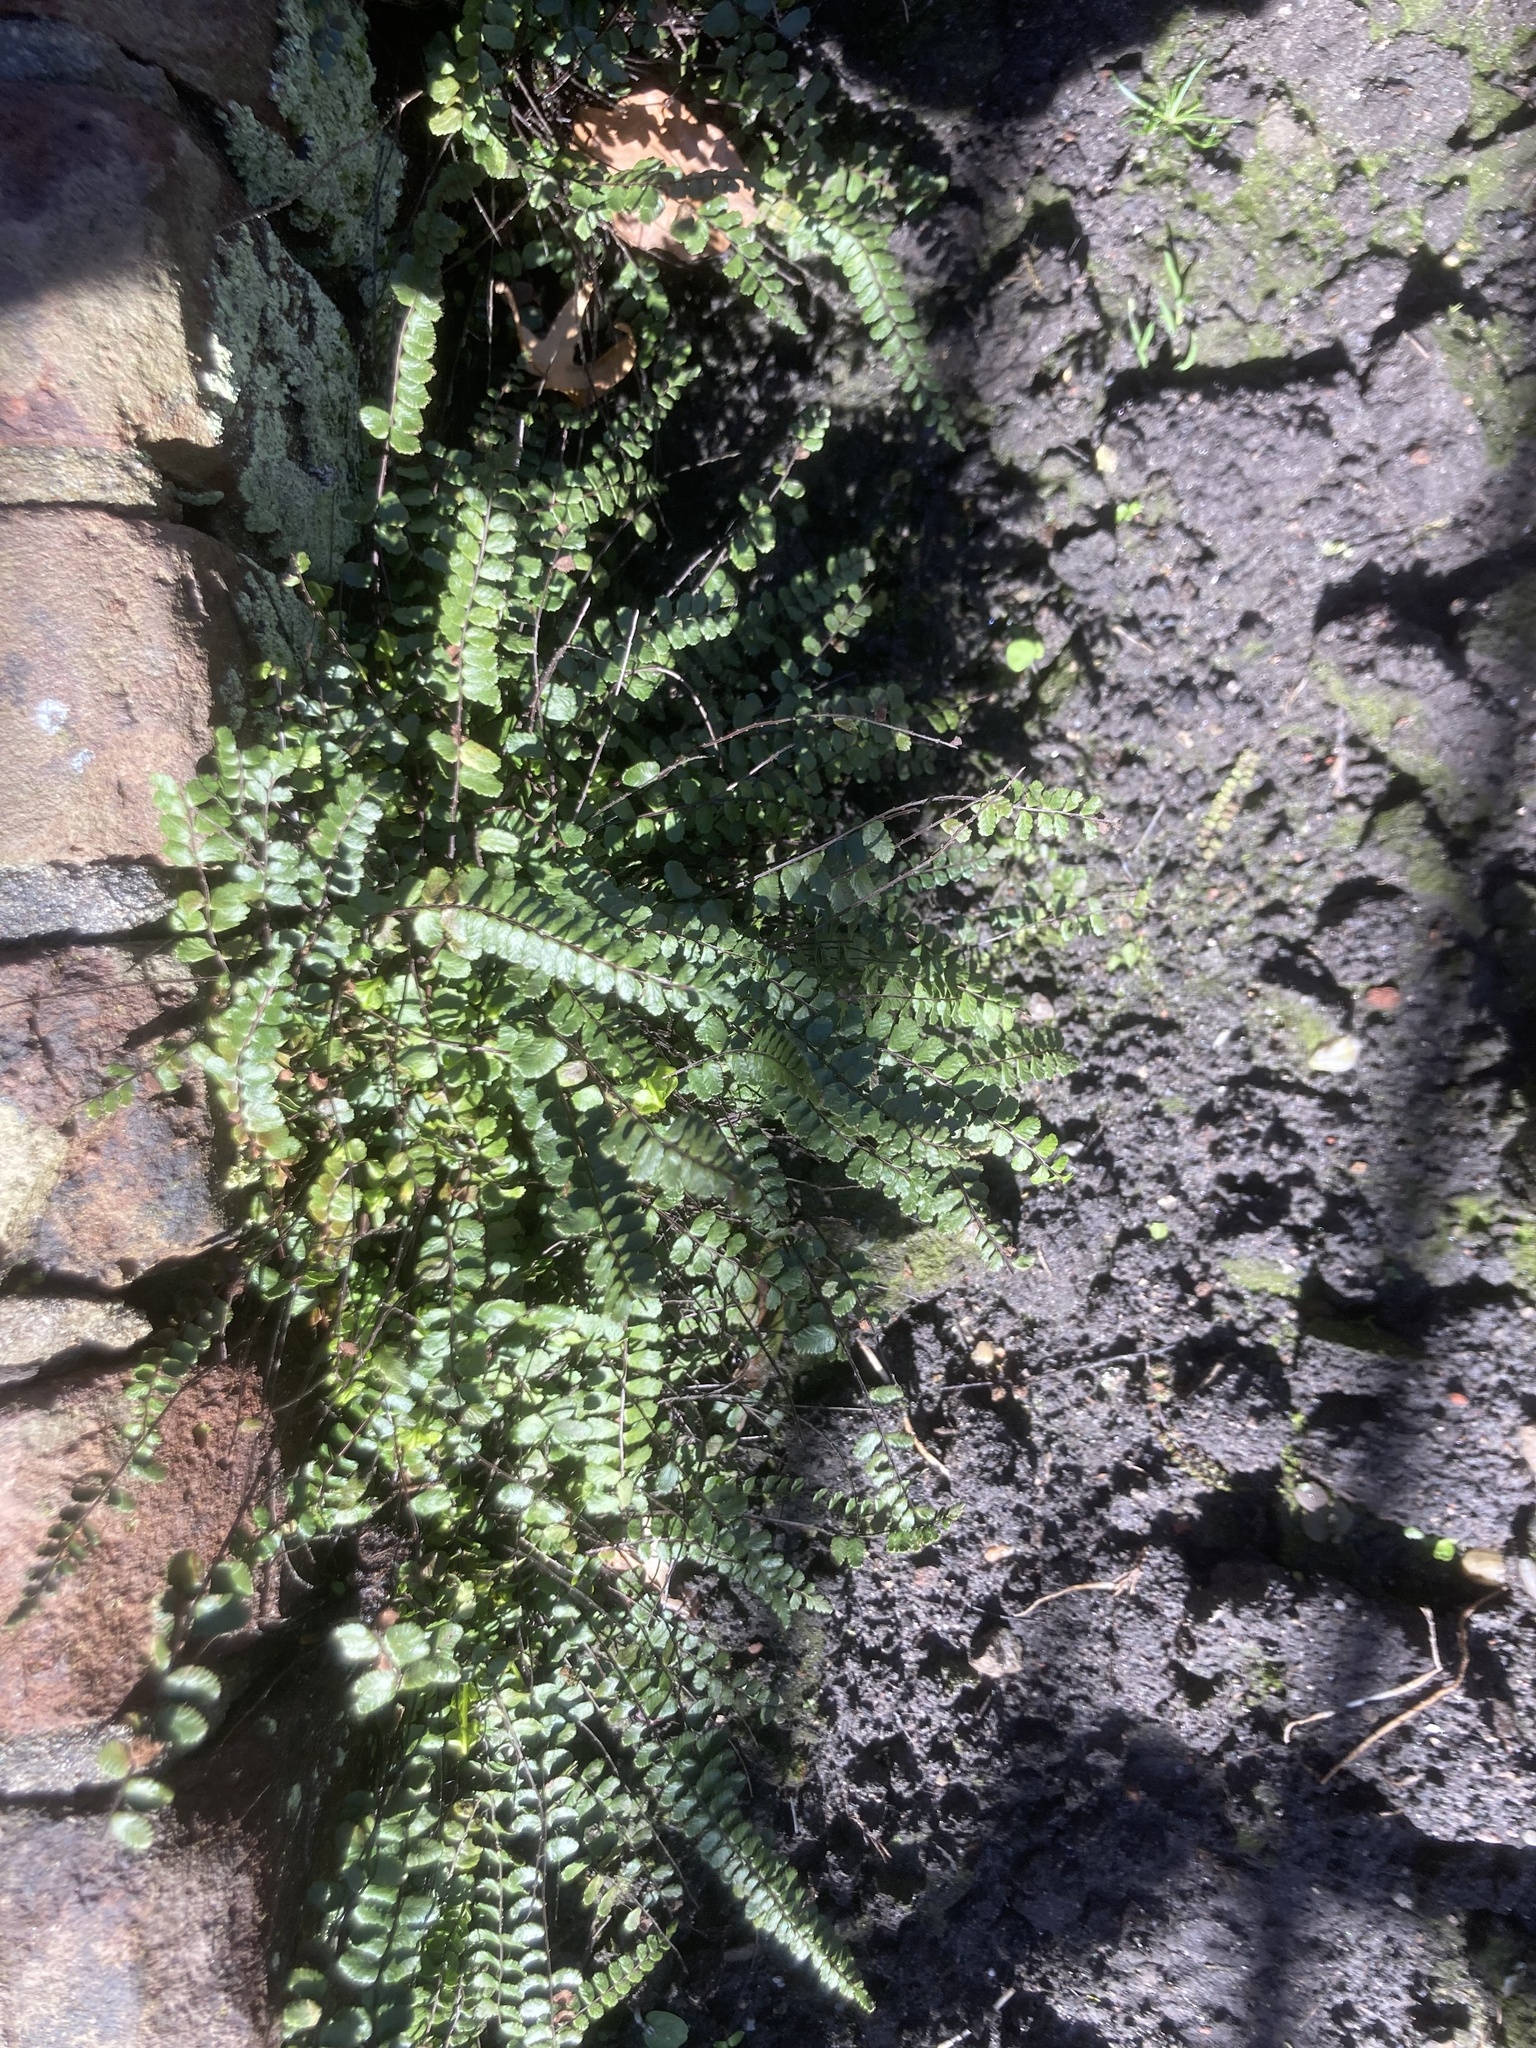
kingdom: Plantae
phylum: Tracheophyta
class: Polypodiopsida
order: Polypodiales
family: Aspleniaceae
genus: Asplenium
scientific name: Asplenium trichomanes
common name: Maidenhair spleenwort
